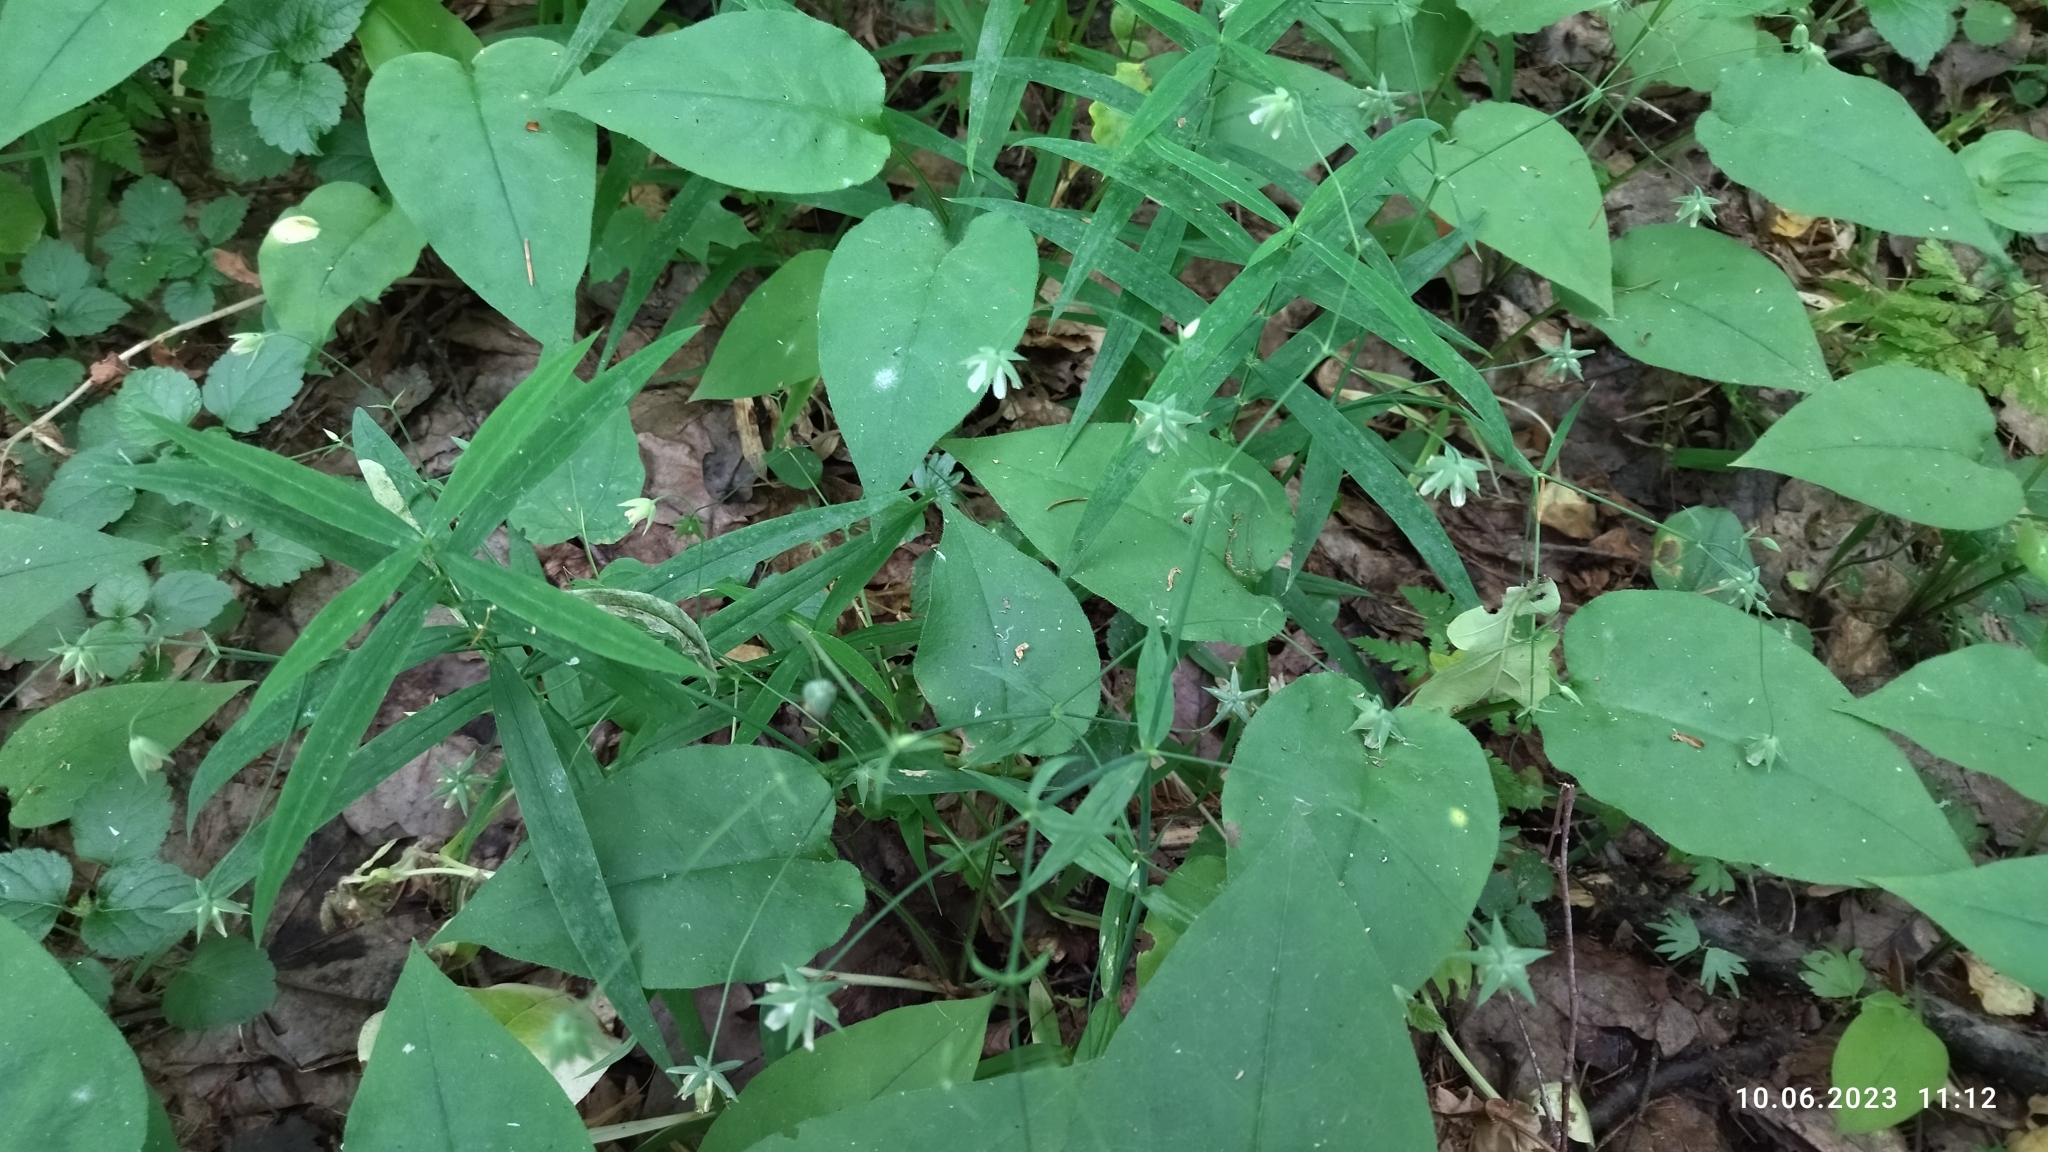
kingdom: Plantae
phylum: Tracheophyta
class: Magnoliopsida
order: Caryophyllales
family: Caryophyllaceae
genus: Rabelera
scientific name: Rabelera holostea
